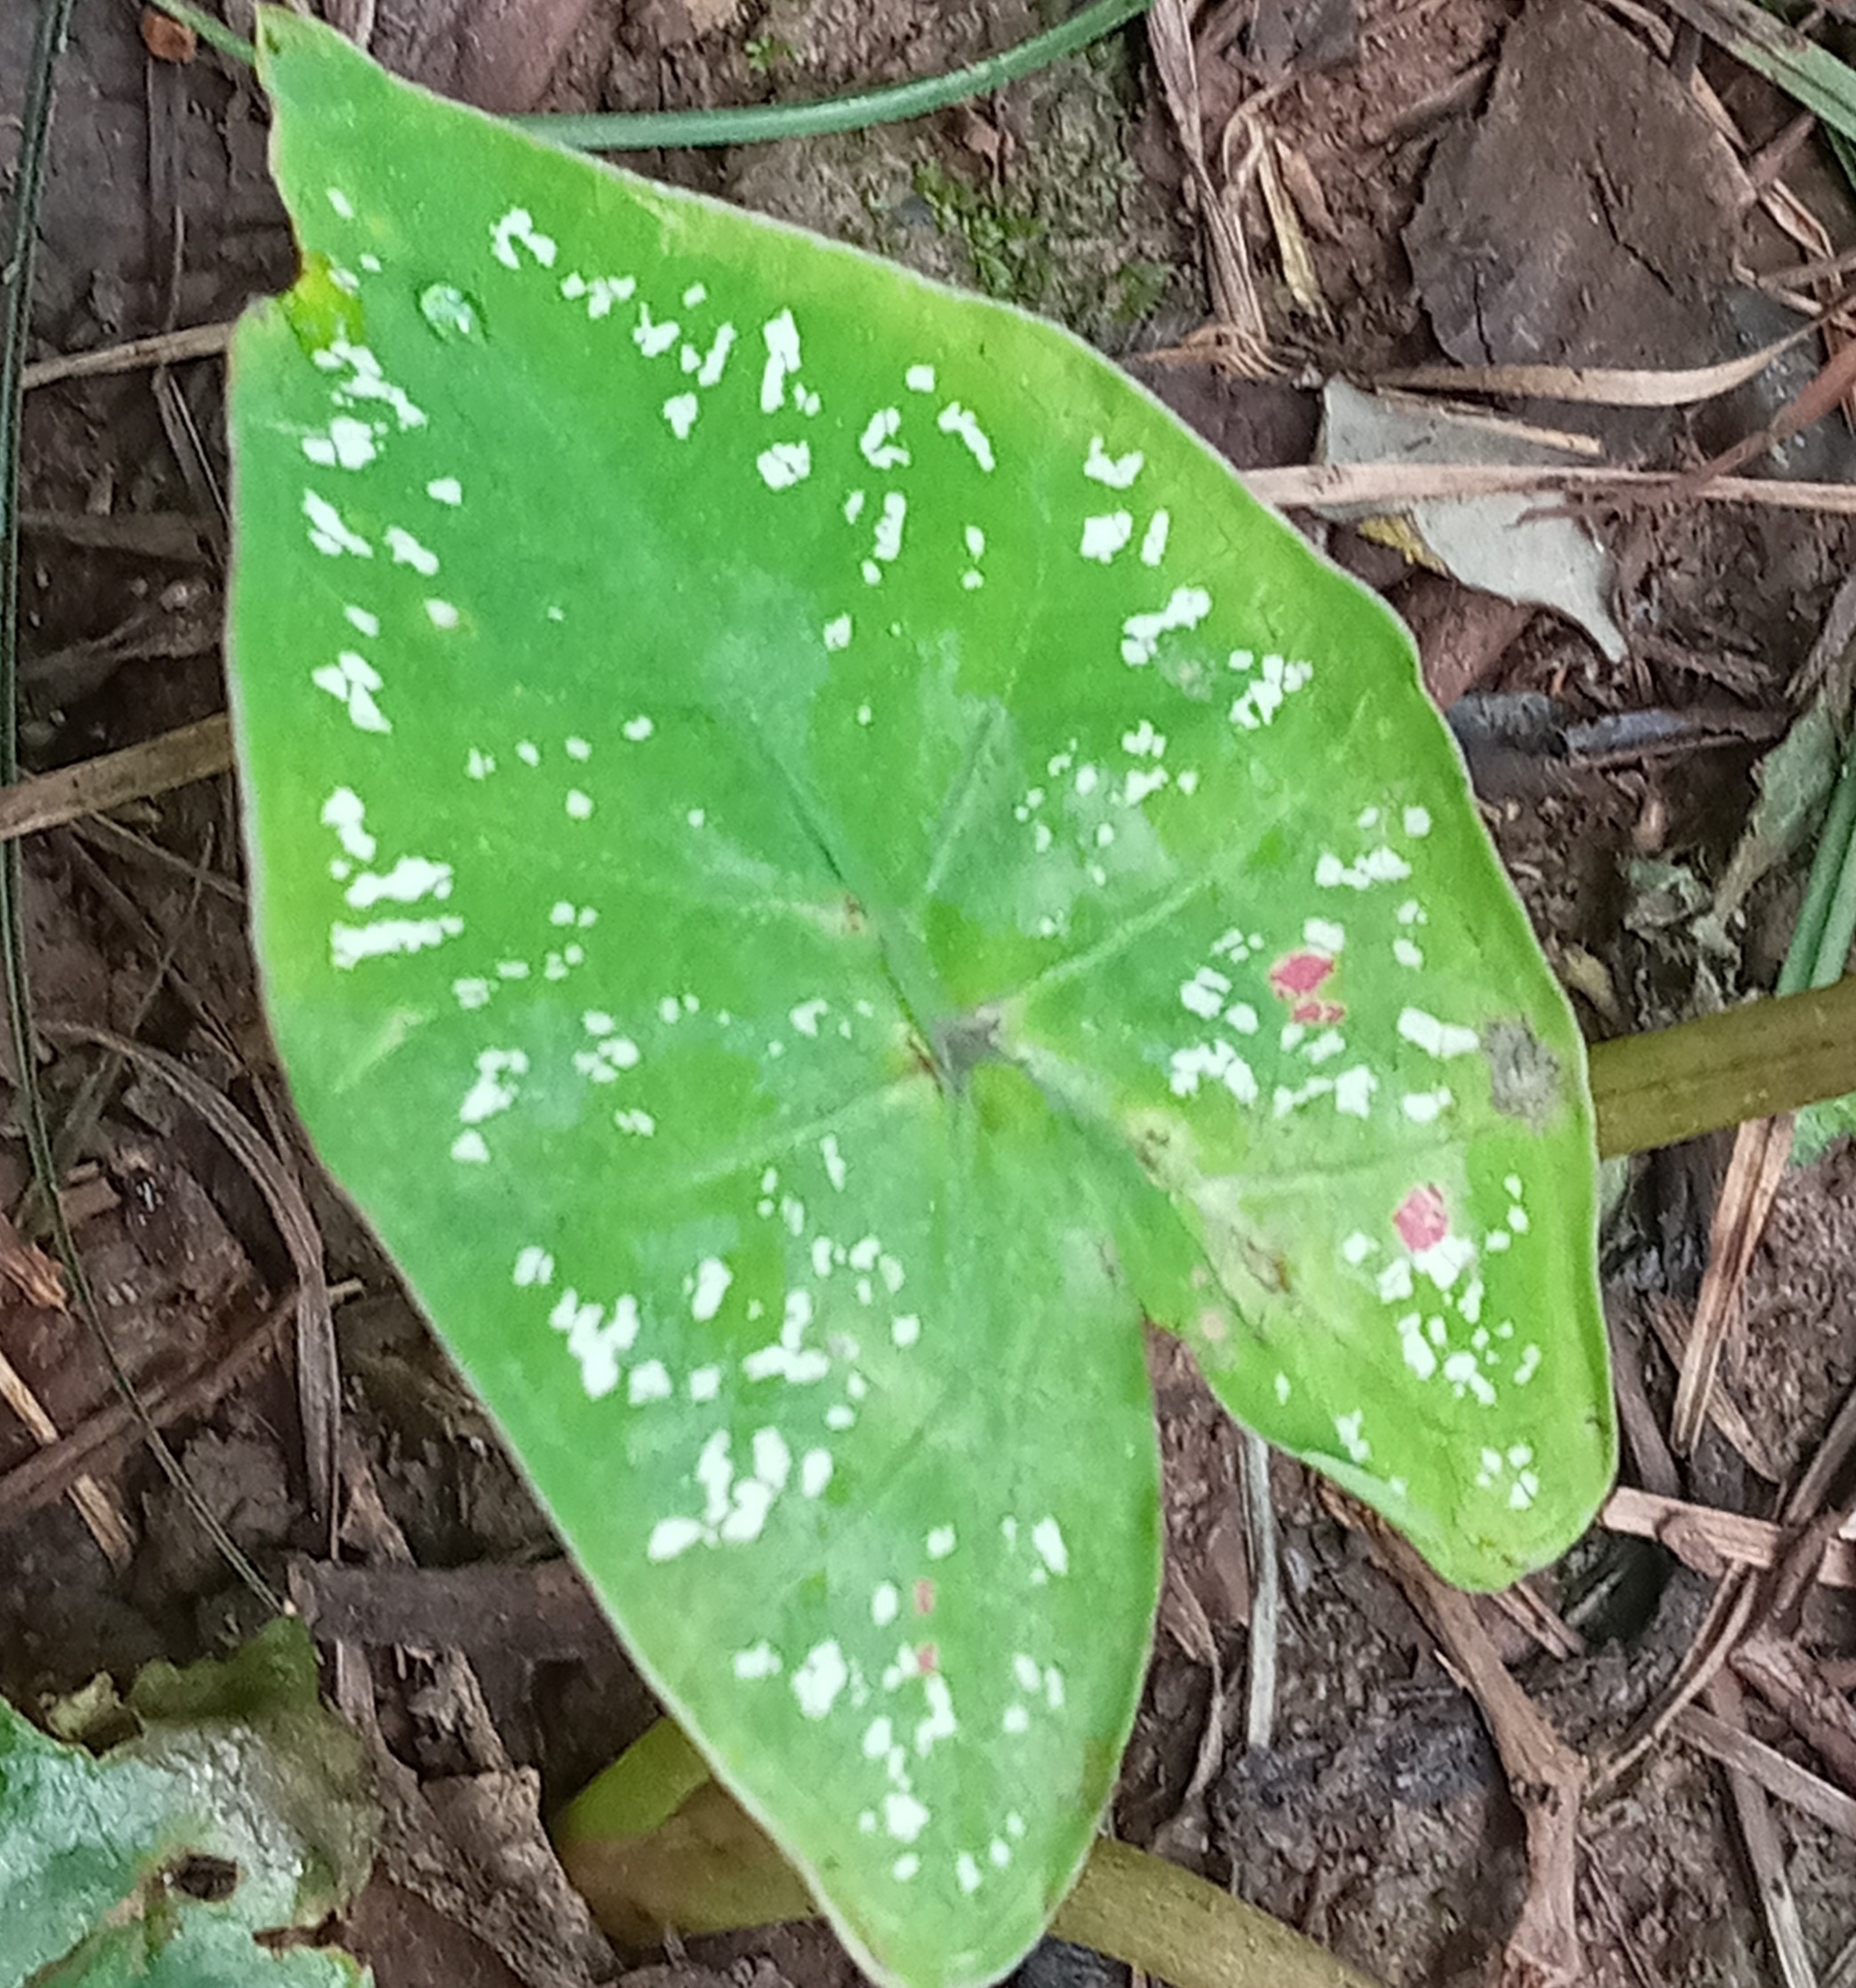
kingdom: Plantae
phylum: Tracheophyta
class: Liliopsida
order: Alismatales
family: Araceae
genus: Caladium
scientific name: Caladium bicolor
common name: Artist's pallet
